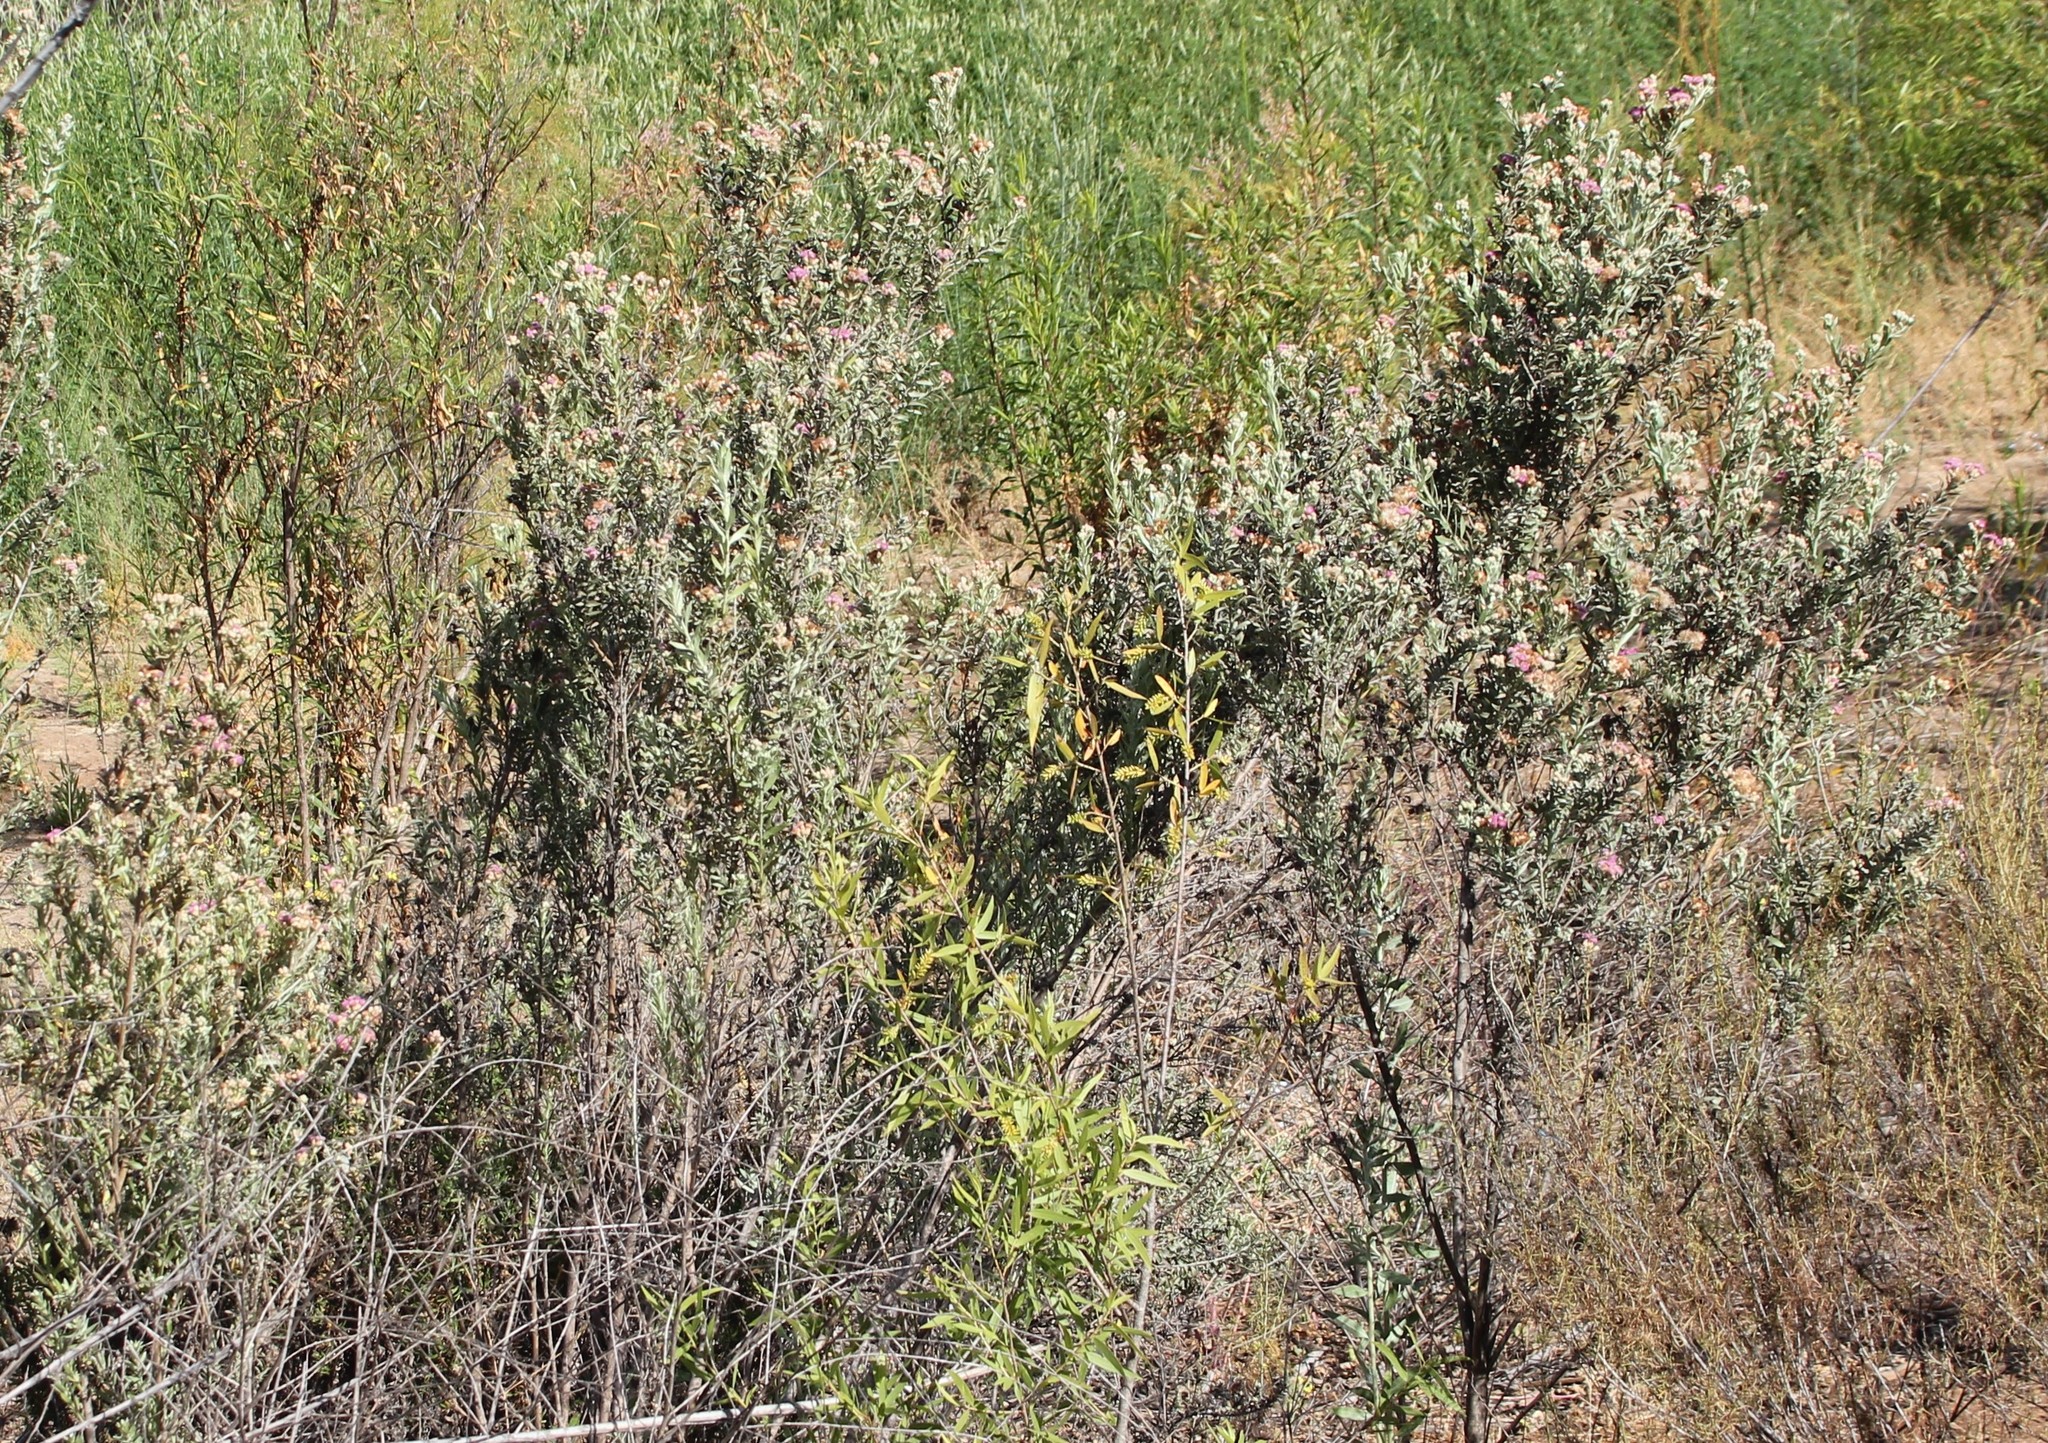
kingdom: Plantae
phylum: Tracheophyta
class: Magnoliopsida
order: Asterales
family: Asteraceae
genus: Pluchea
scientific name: Pluchea sericea
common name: Arrow-weed
